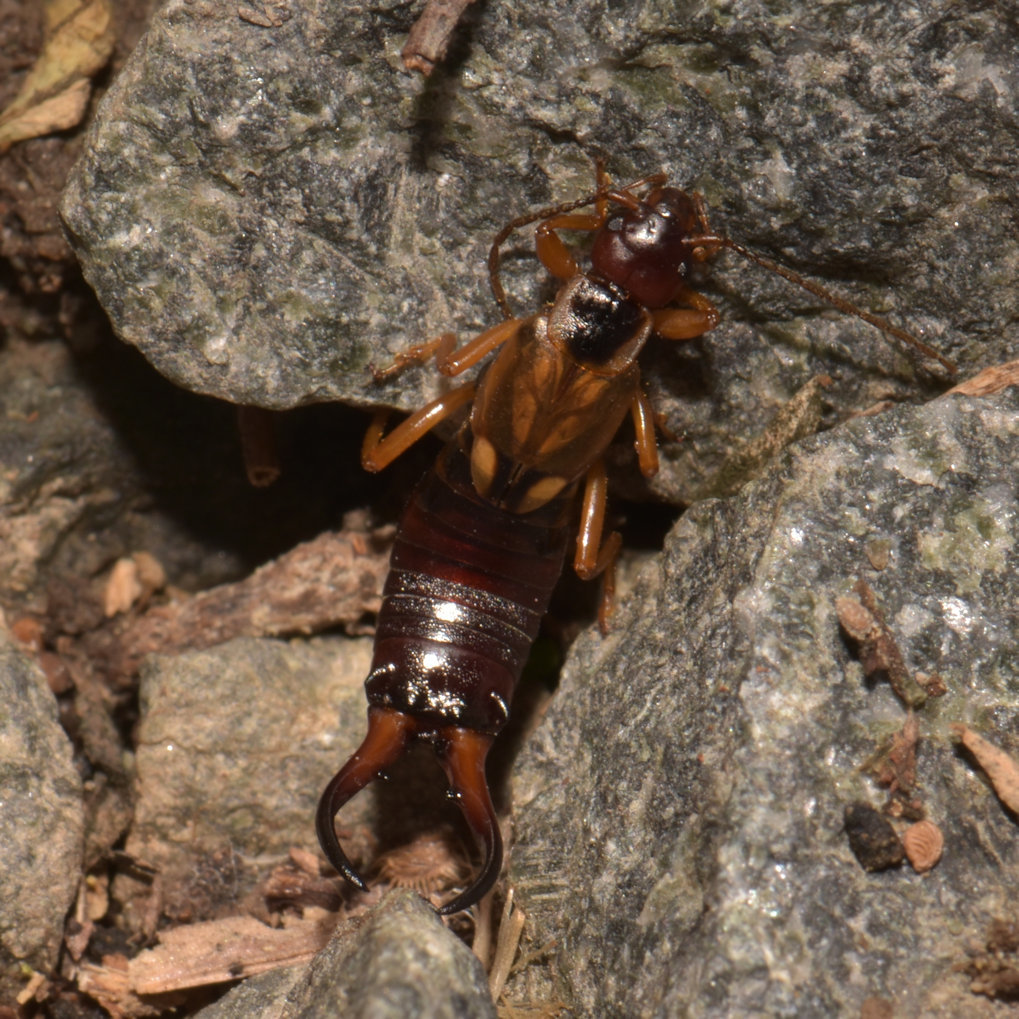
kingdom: Animalia
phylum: Arthropoda
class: Insecta
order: Dermaptera
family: Forficulidae
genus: Forficula
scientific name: Forficula
